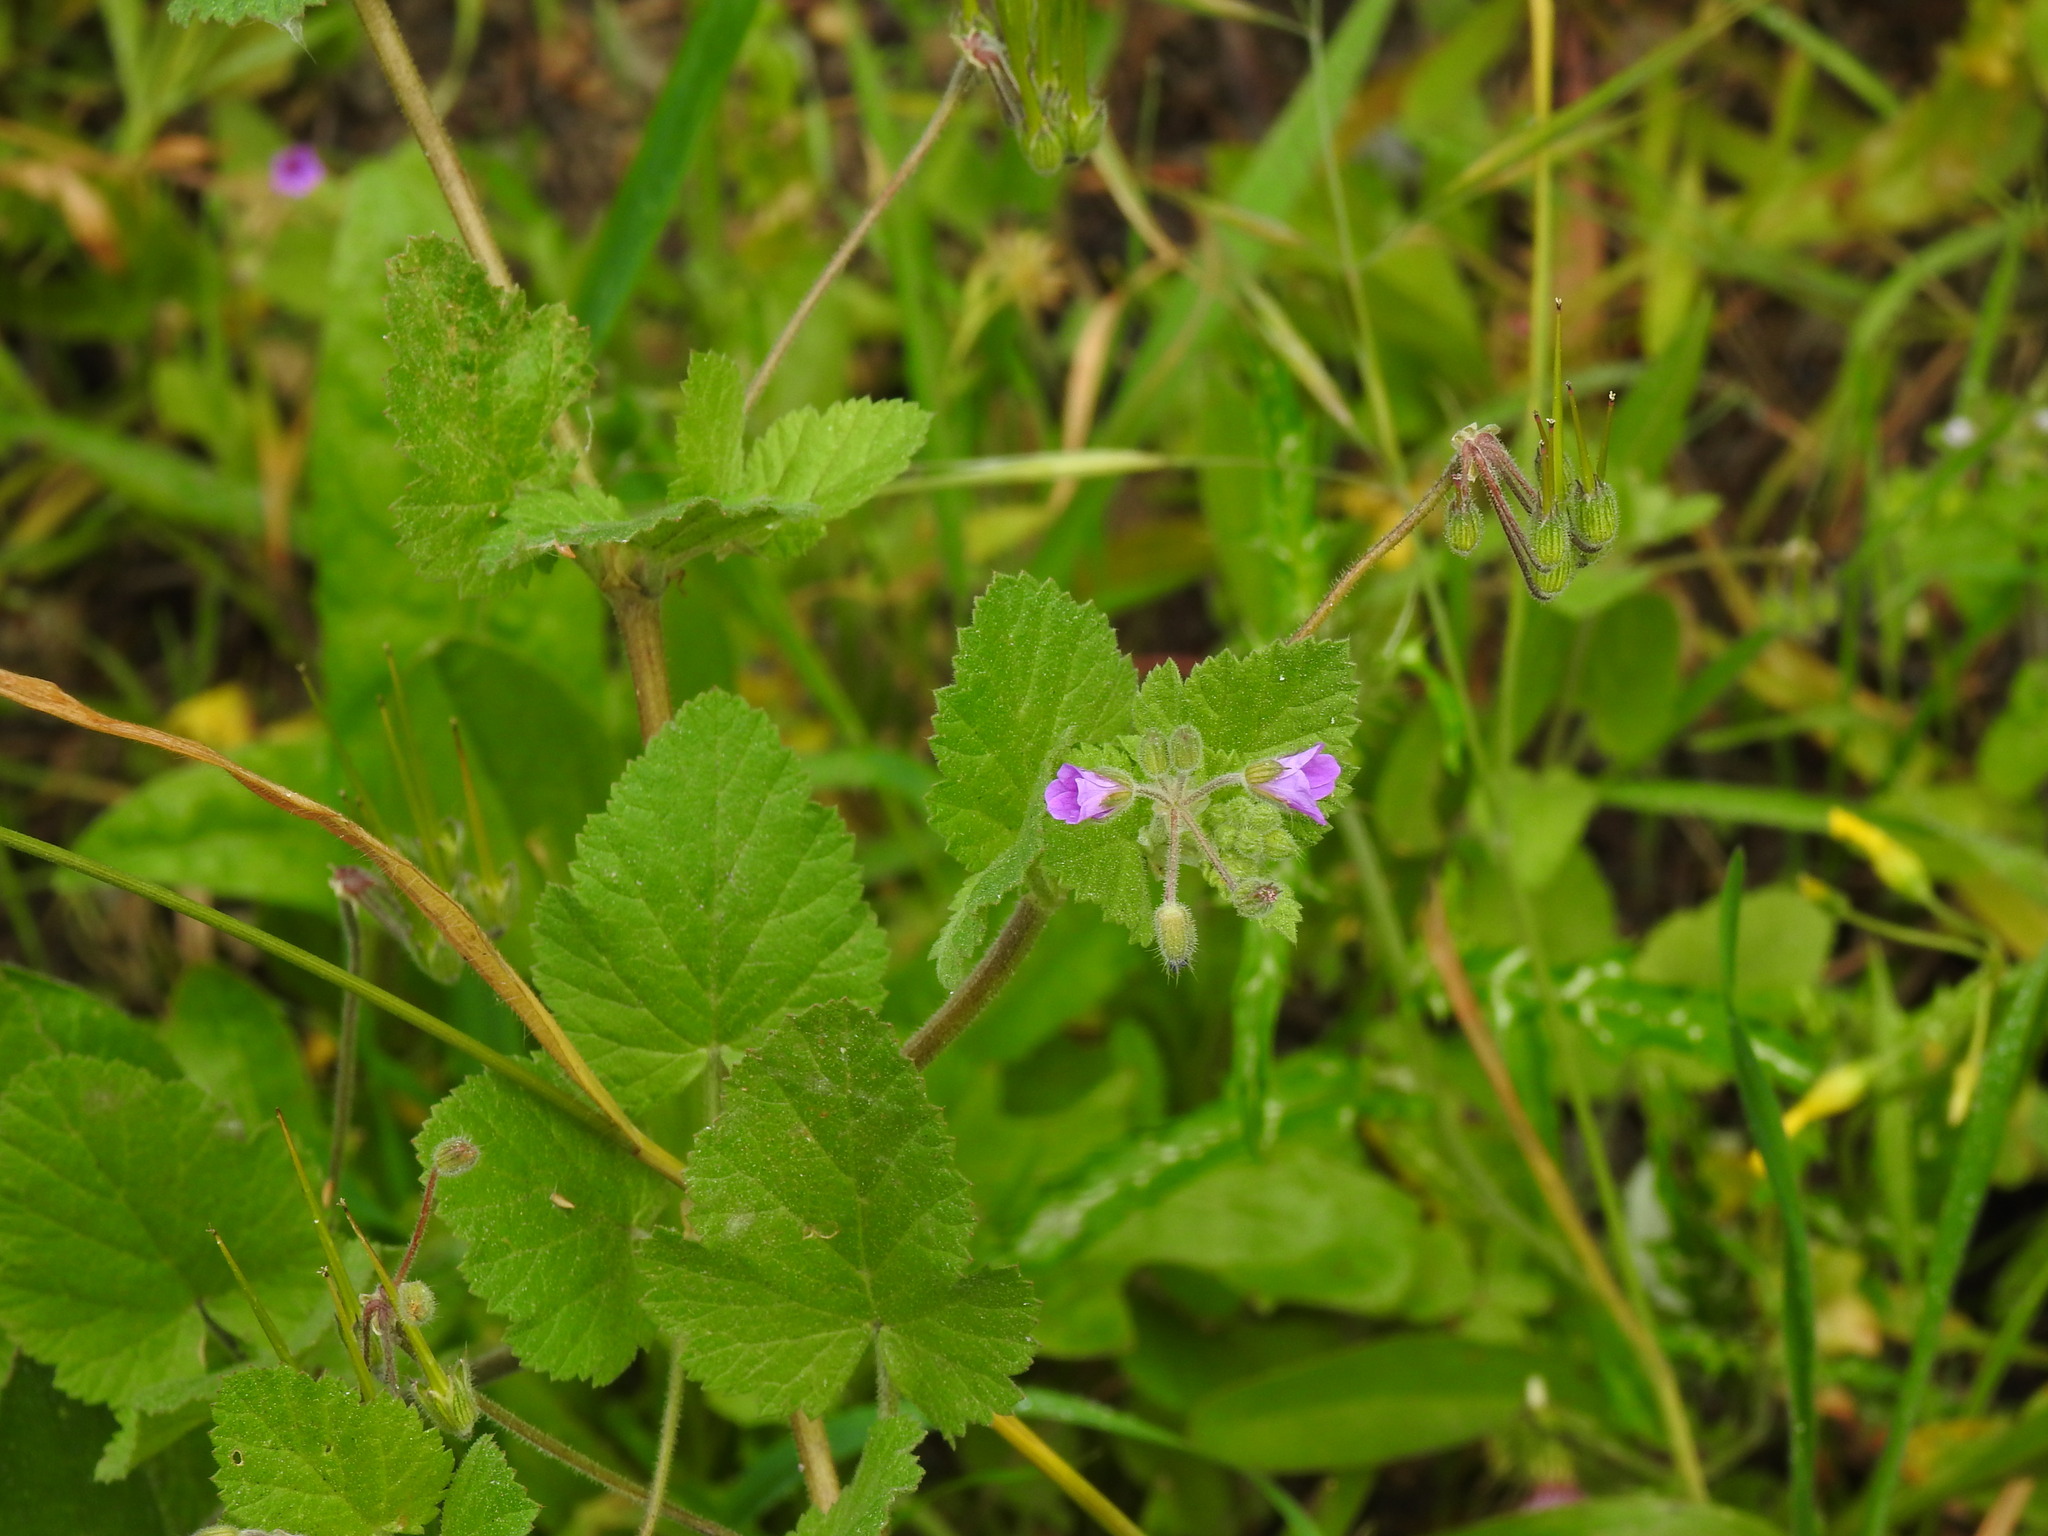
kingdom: Plantae
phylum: Tracheophyta
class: Magnoliopsida
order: Geraniales
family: Geraniaceae
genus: Erodium
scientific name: Erodium malacoides
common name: Soft stork's-bill
